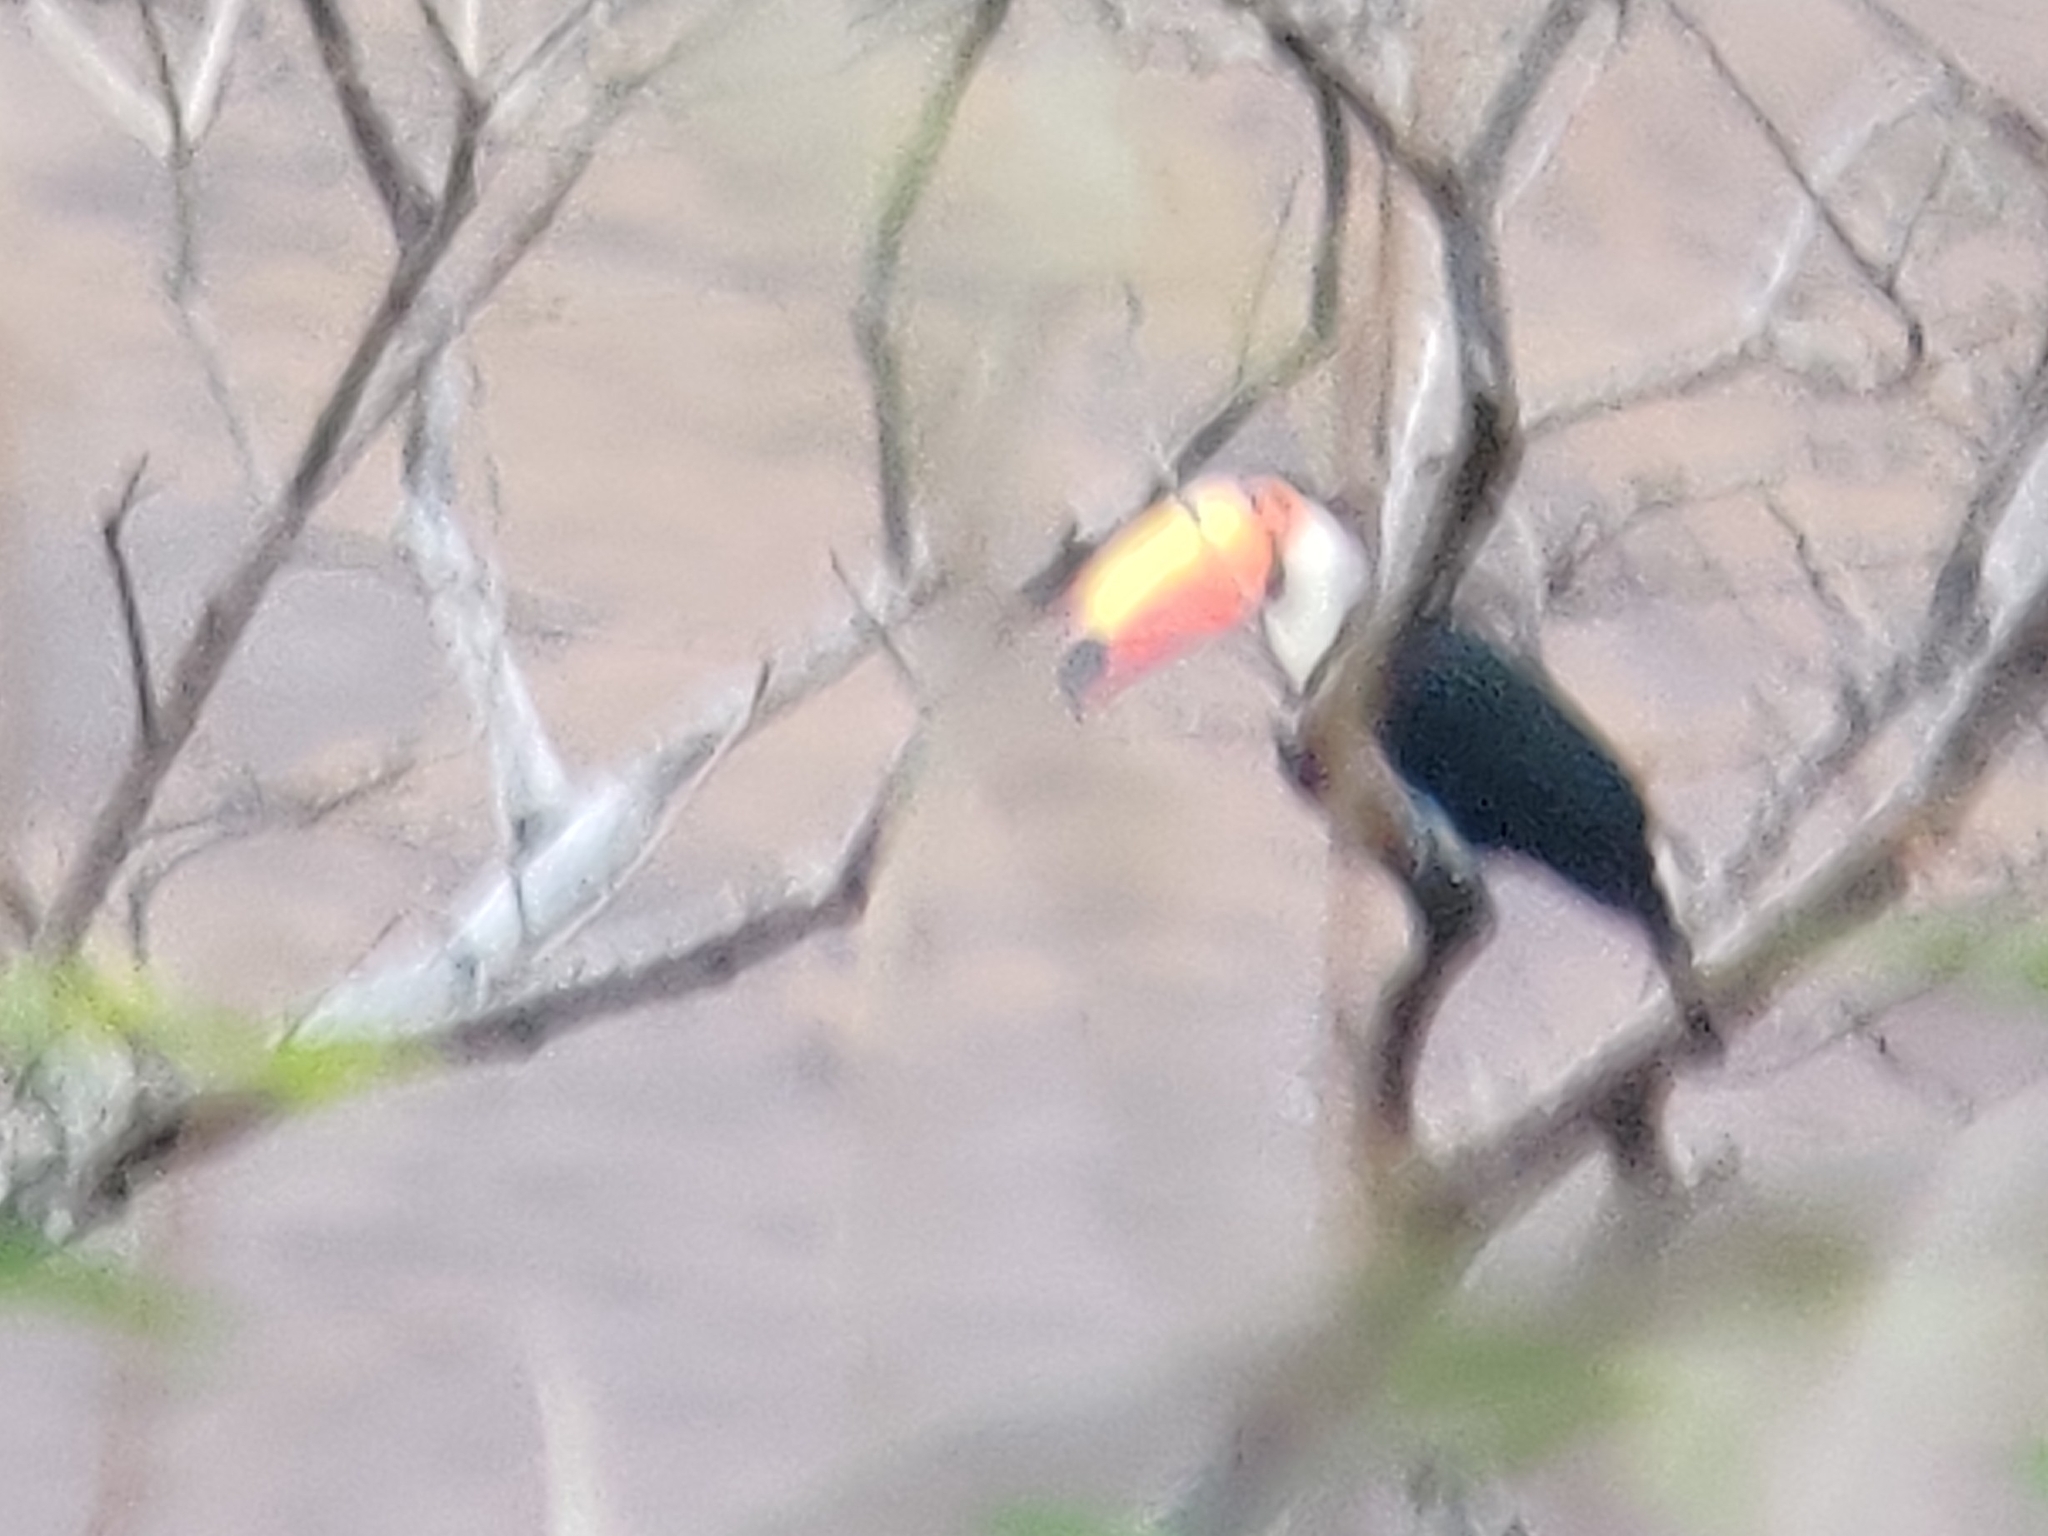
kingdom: Animalia
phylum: Chordata
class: Aves
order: Piciformes
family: Ramphastidae
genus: Ramphastos
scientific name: Ramphastos toco
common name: Toco toucan
